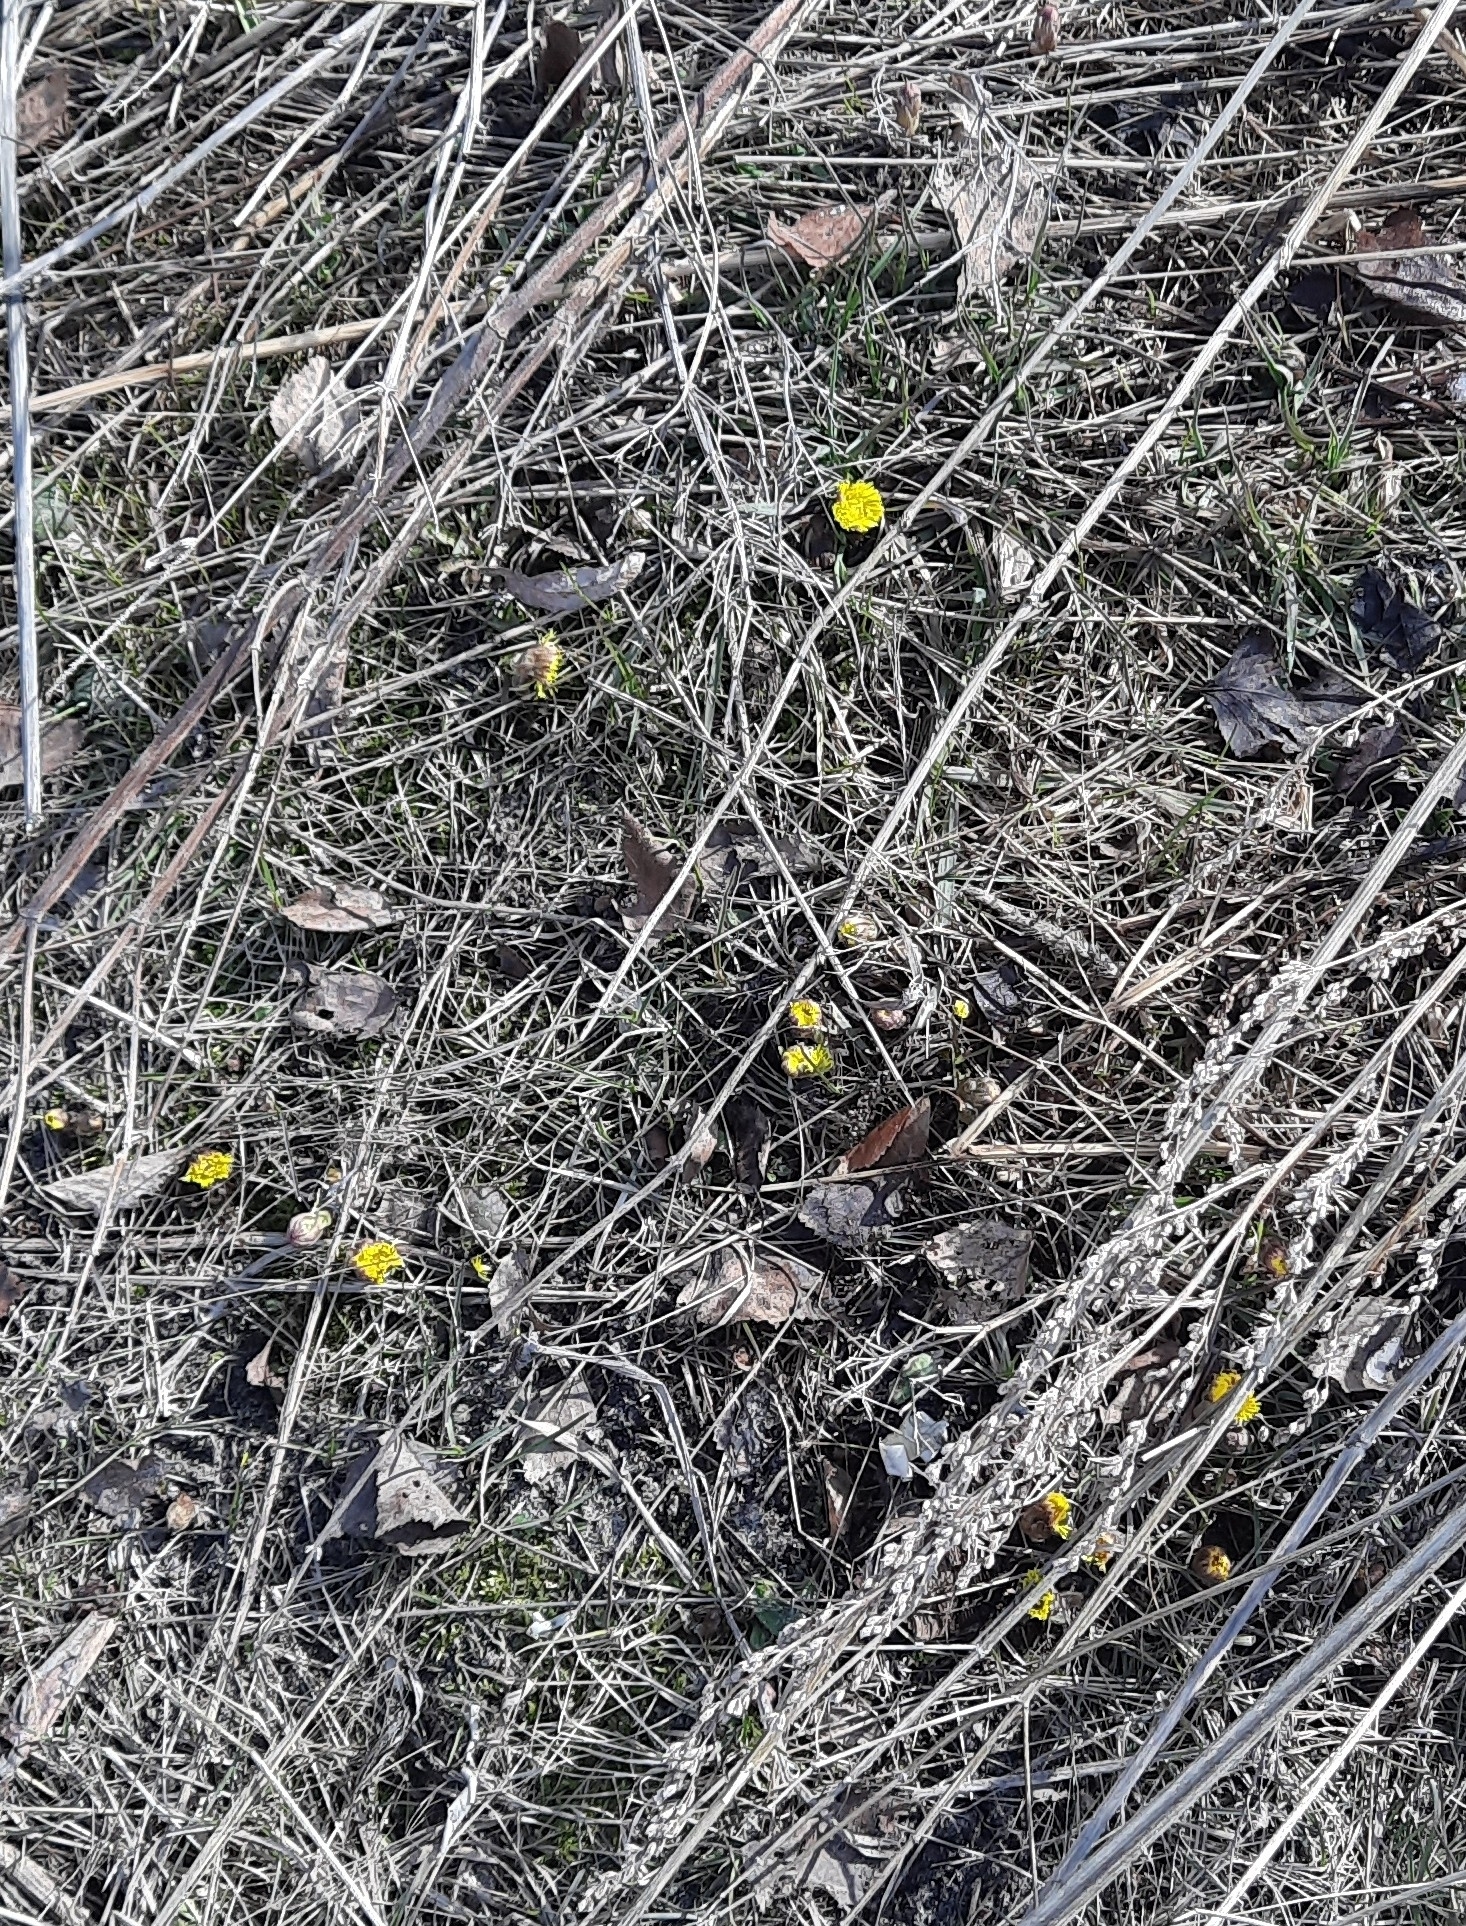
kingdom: Plantae
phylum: Tracheophyta
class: Magnoliopsida
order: Asterales
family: Asteraceae
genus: Tussilago
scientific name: Tussilago farfara
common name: Coltsfoot
